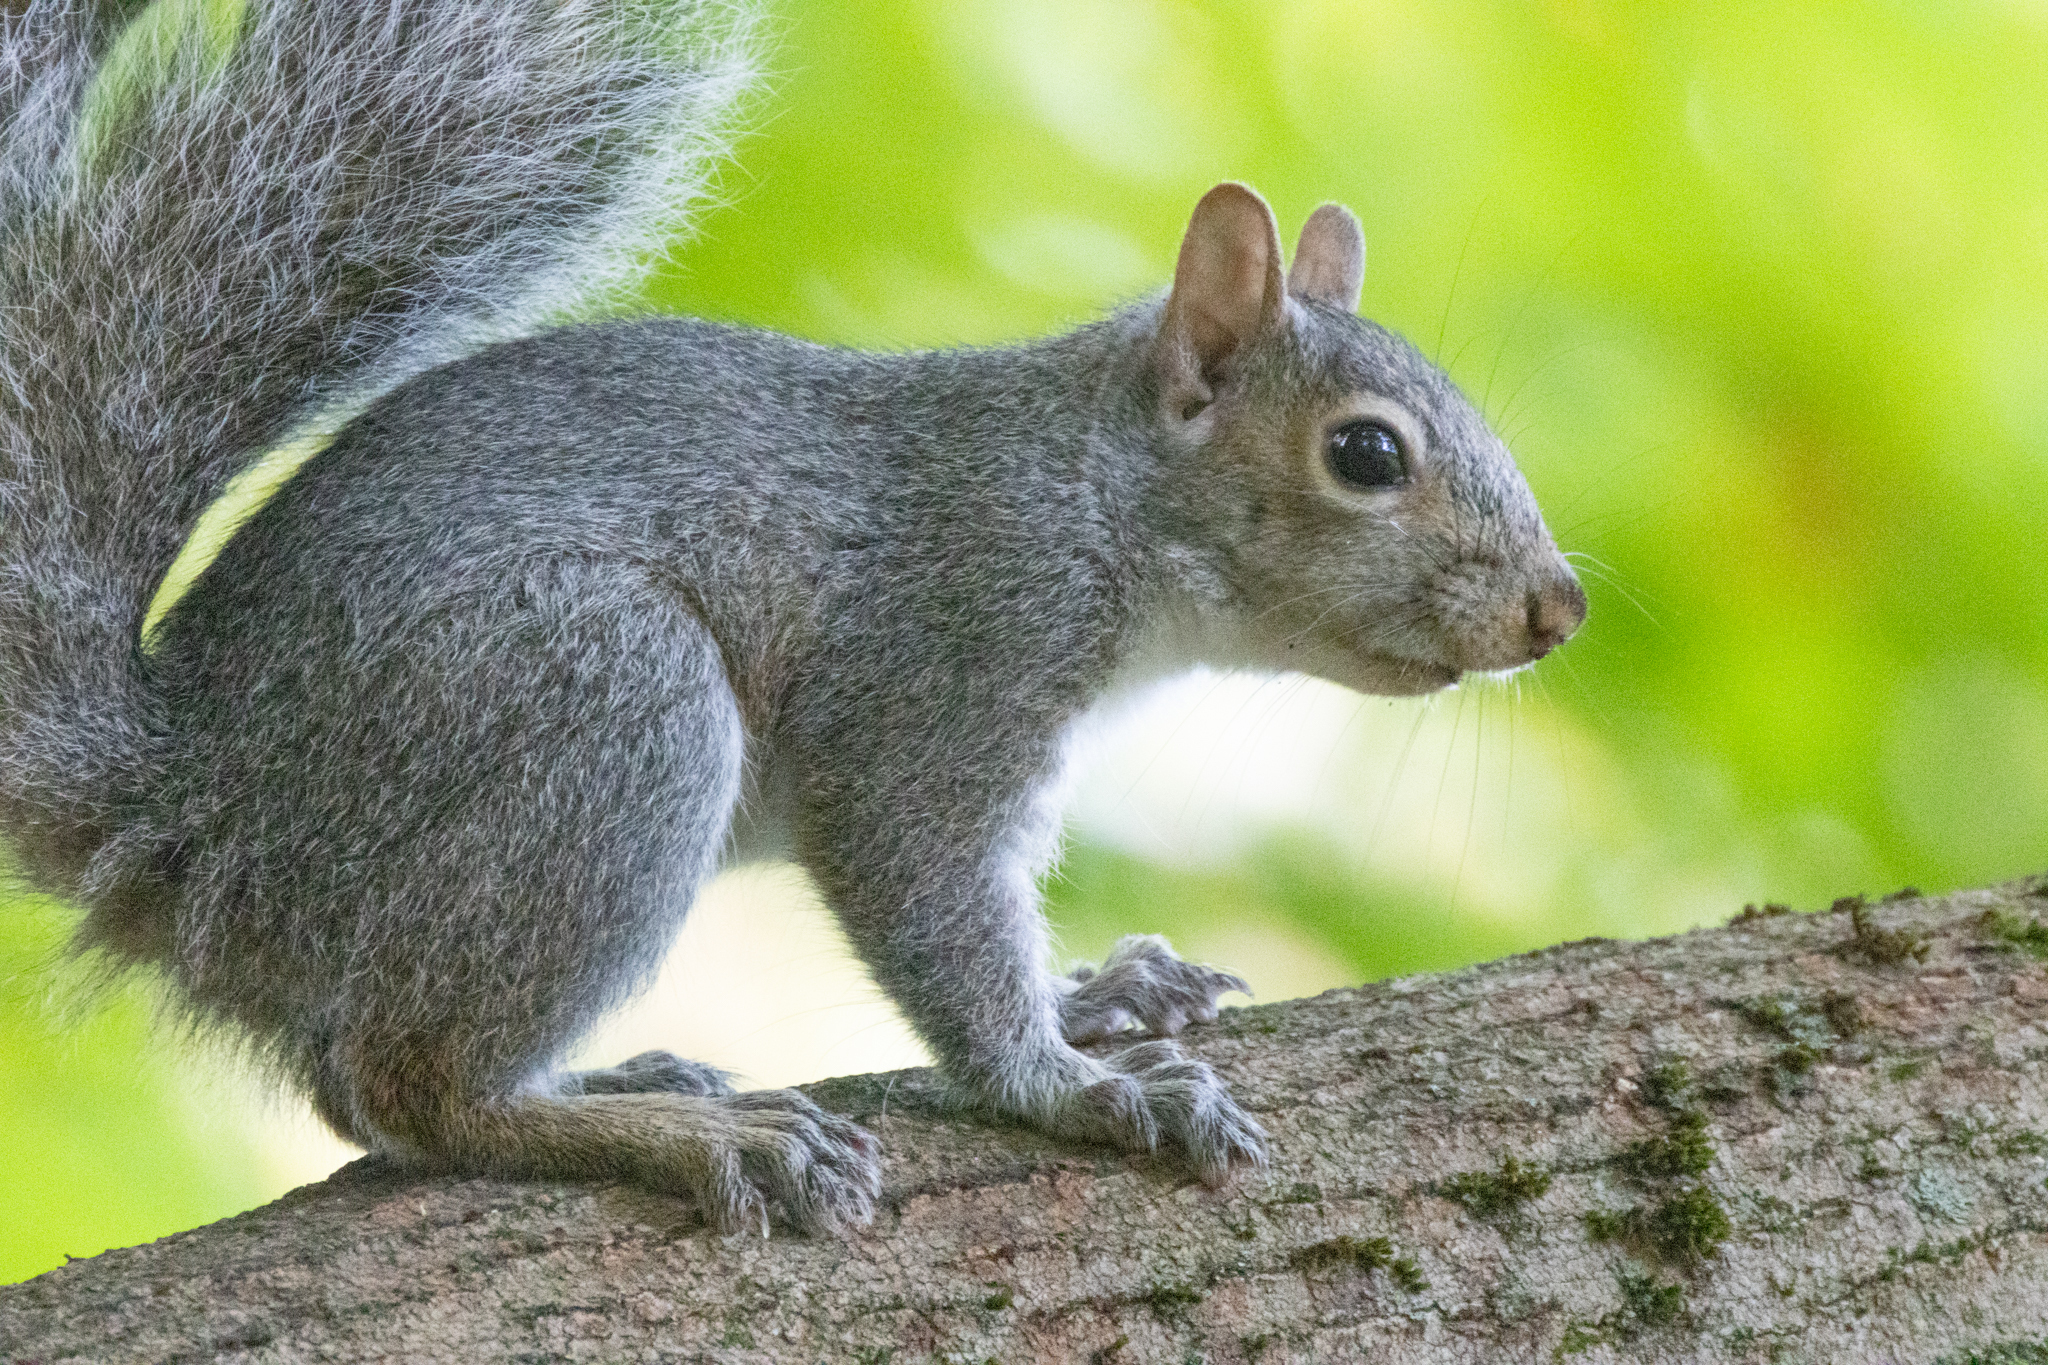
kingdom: Animalia
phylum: Chordata
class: Mammalia
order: Rodentia
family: Sciuridae
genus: Sciurus
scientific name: Sciurus carolinensis
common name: Eastern gray squirrel
